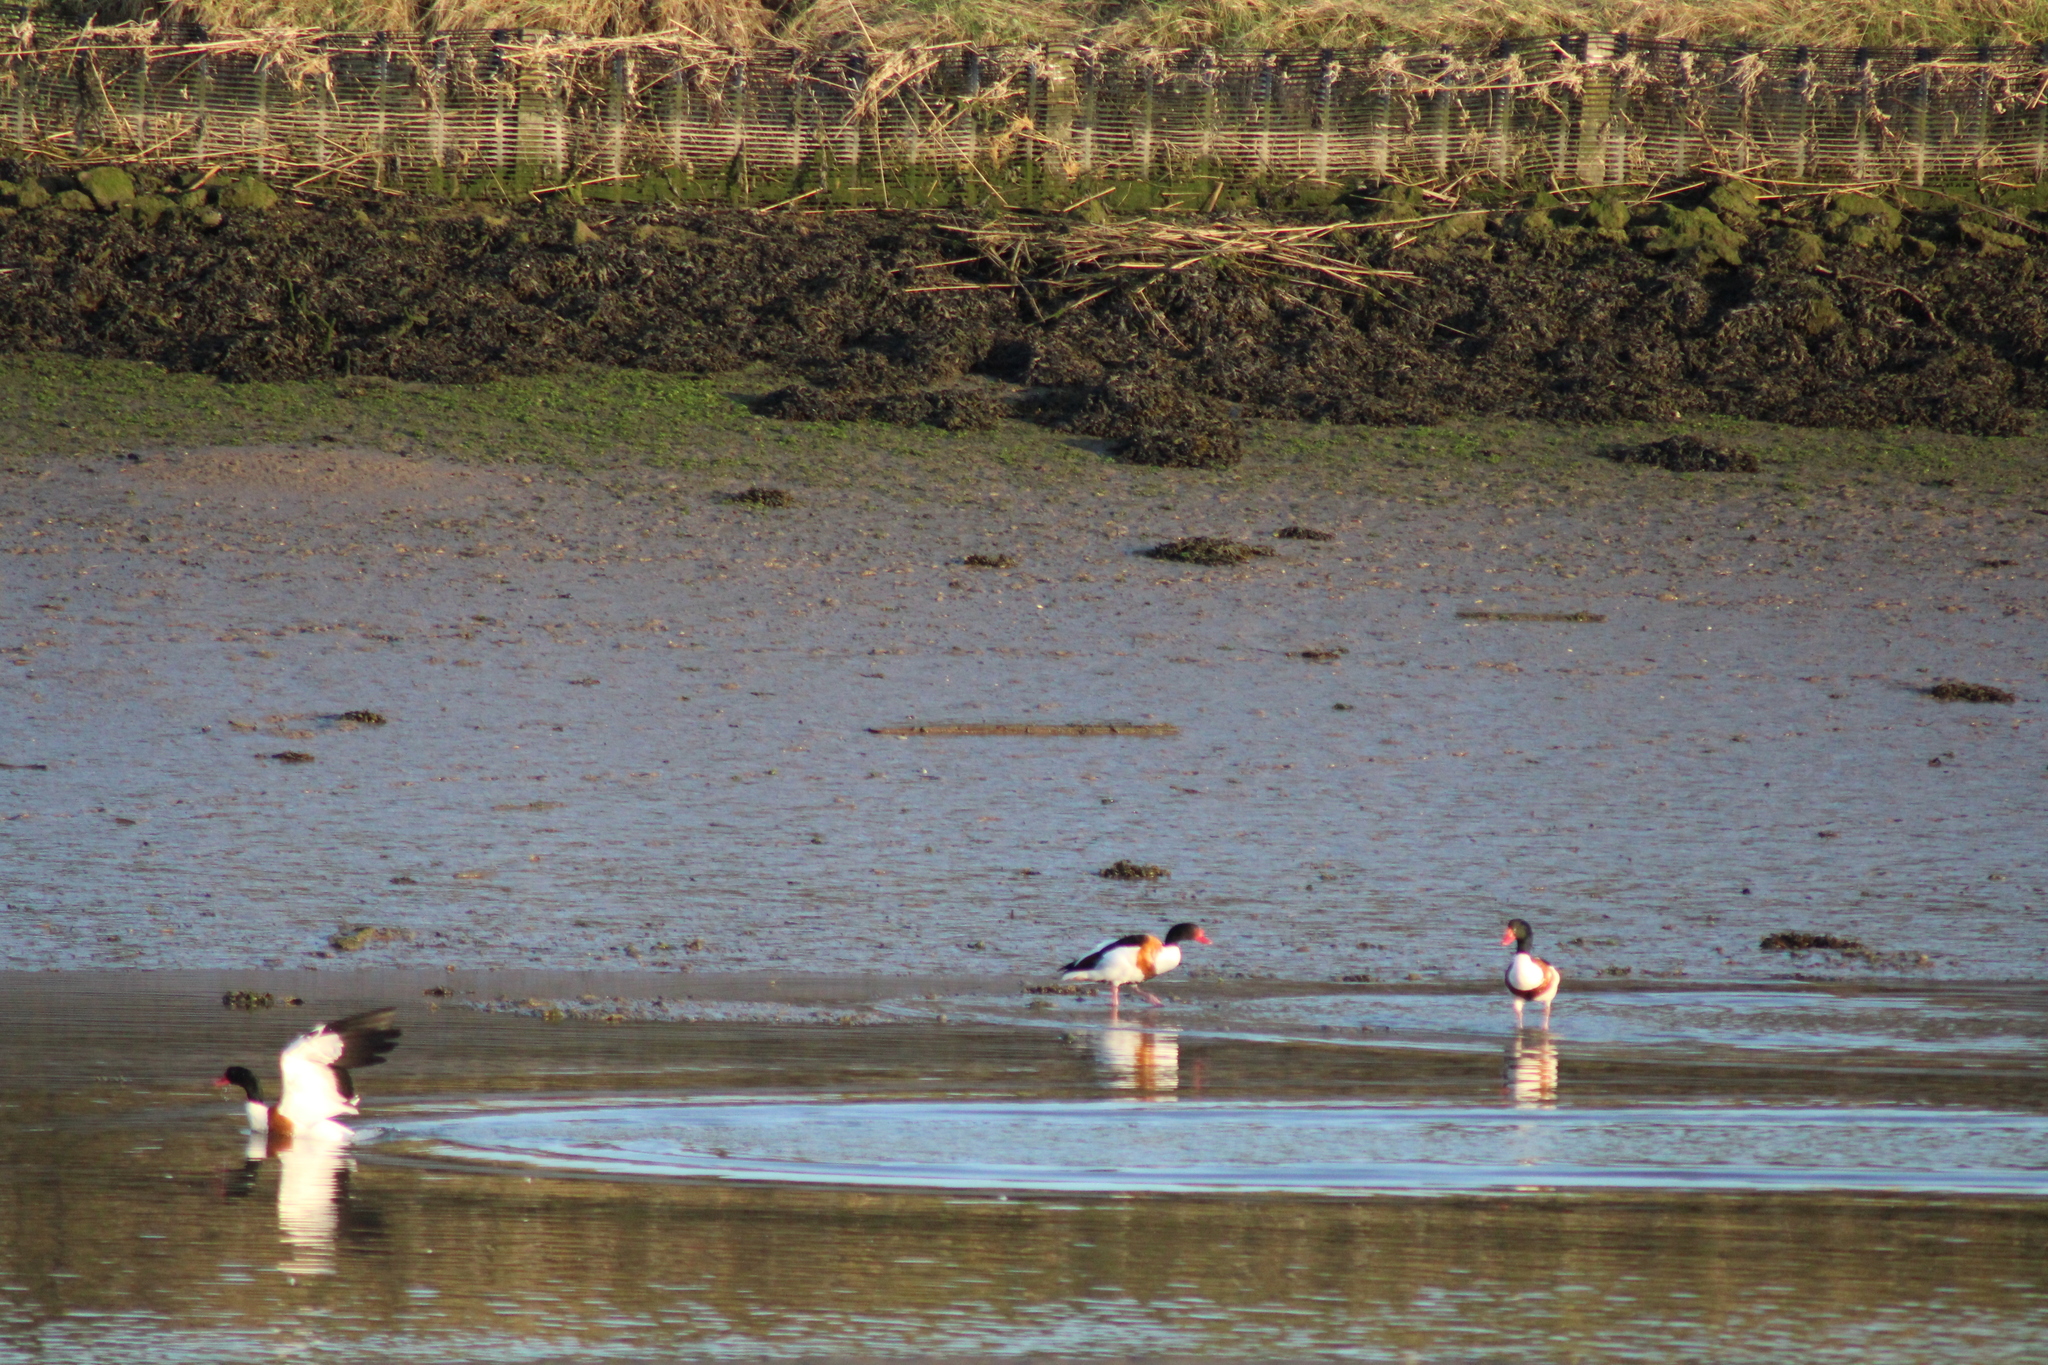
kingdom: Animalia
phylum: Chordata
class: Aves
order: Anseriformes
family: Anatidae
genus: Tadorna
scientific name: Tadorna tadorna
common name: Common shelduck
